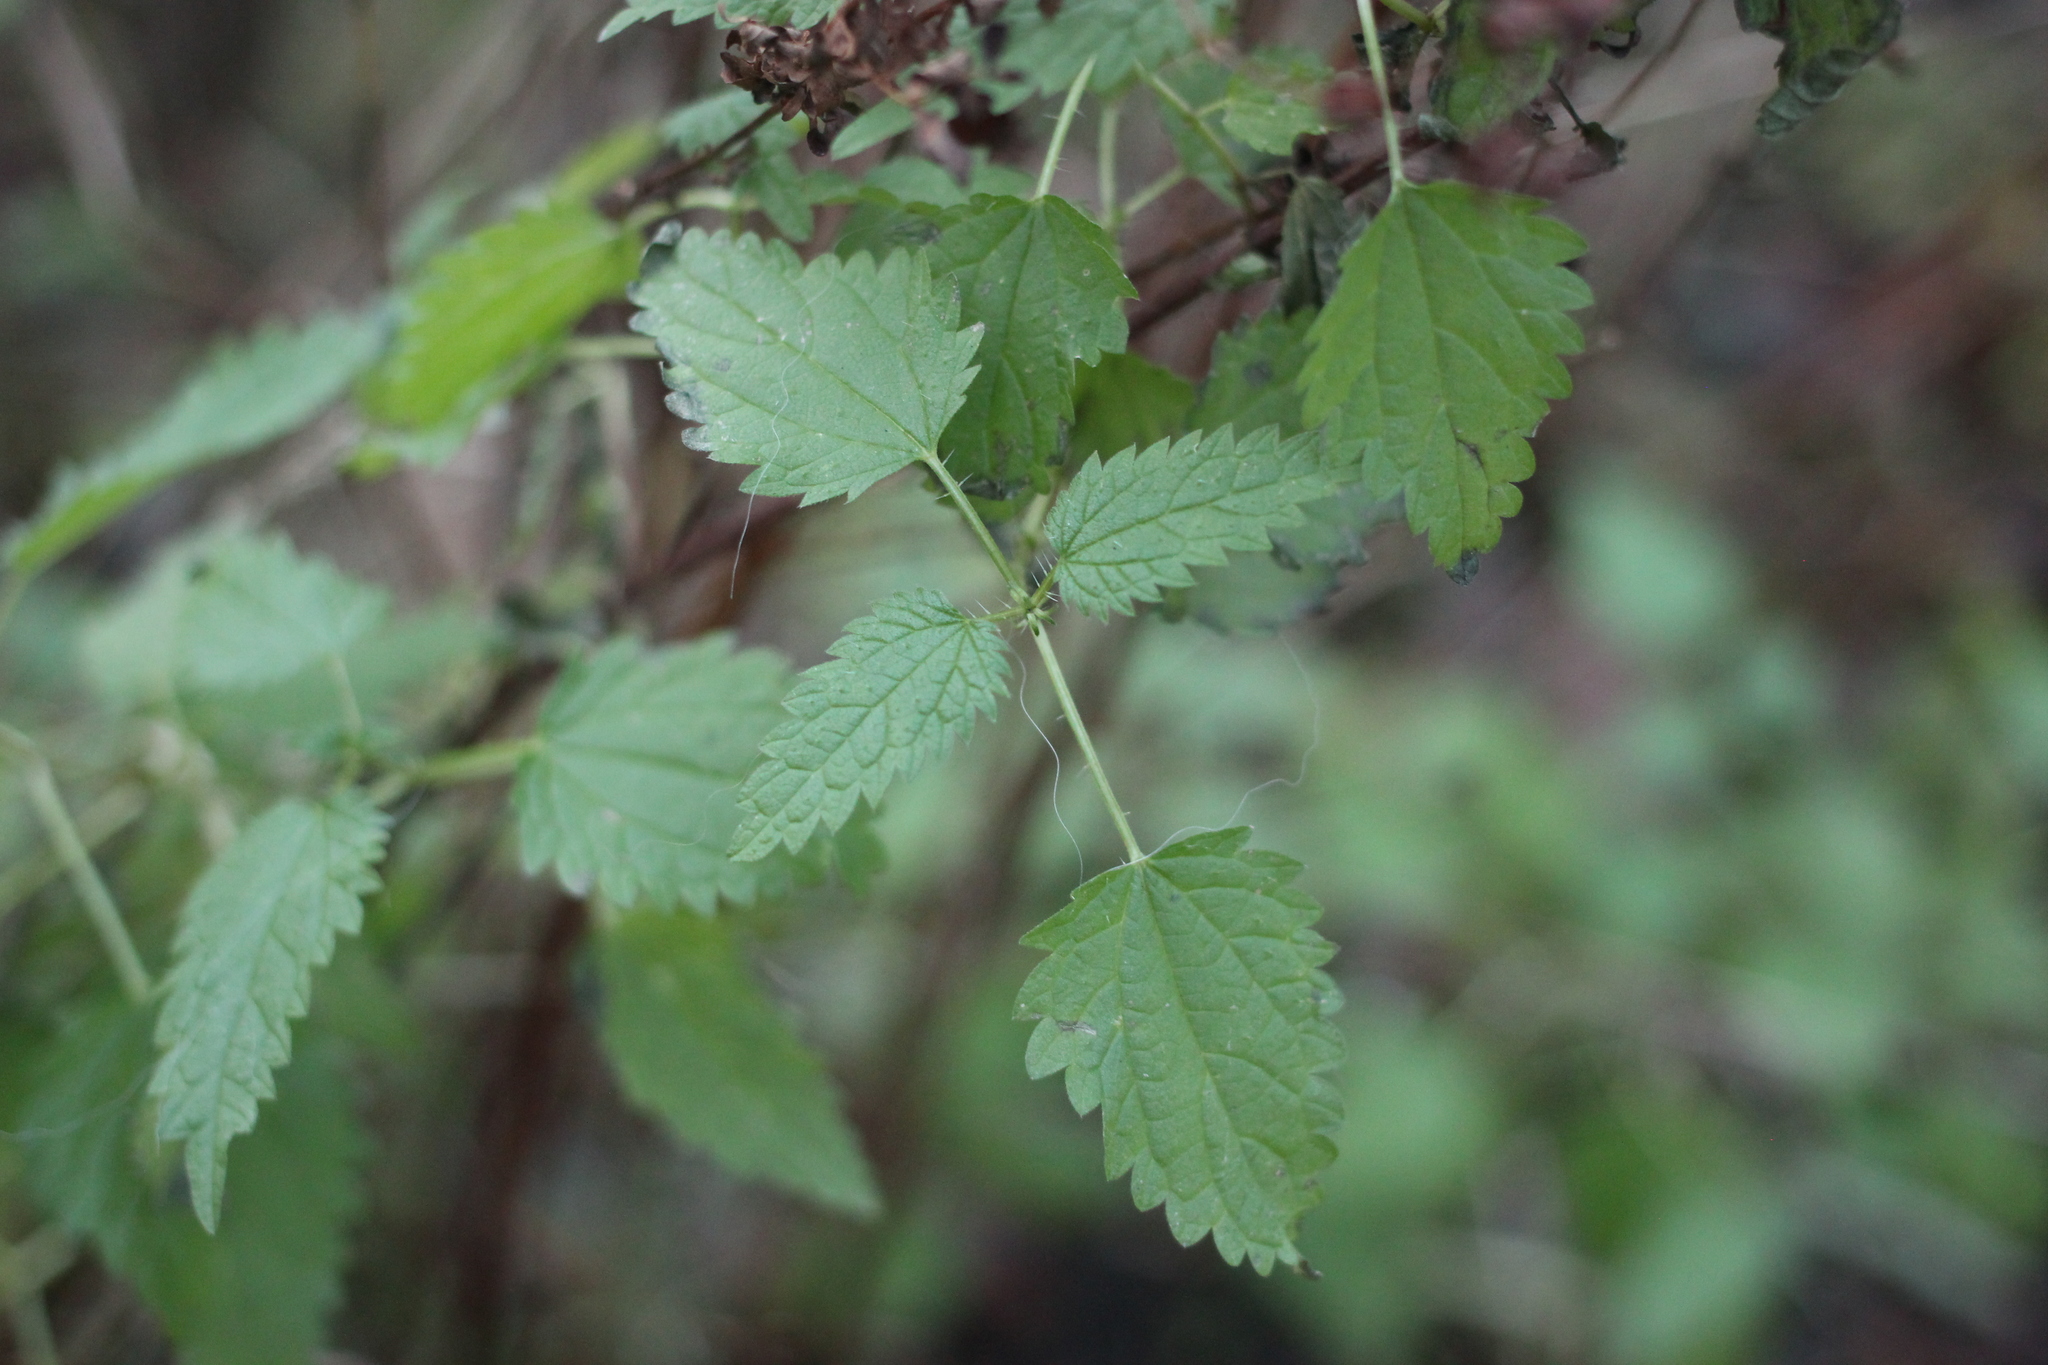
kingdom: Plantae
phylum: Tracheophyta
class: Magnoliopsida
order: Rosales
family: Urticaceae
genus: Urtica
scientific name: Urtica dioica
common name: Common nettle
